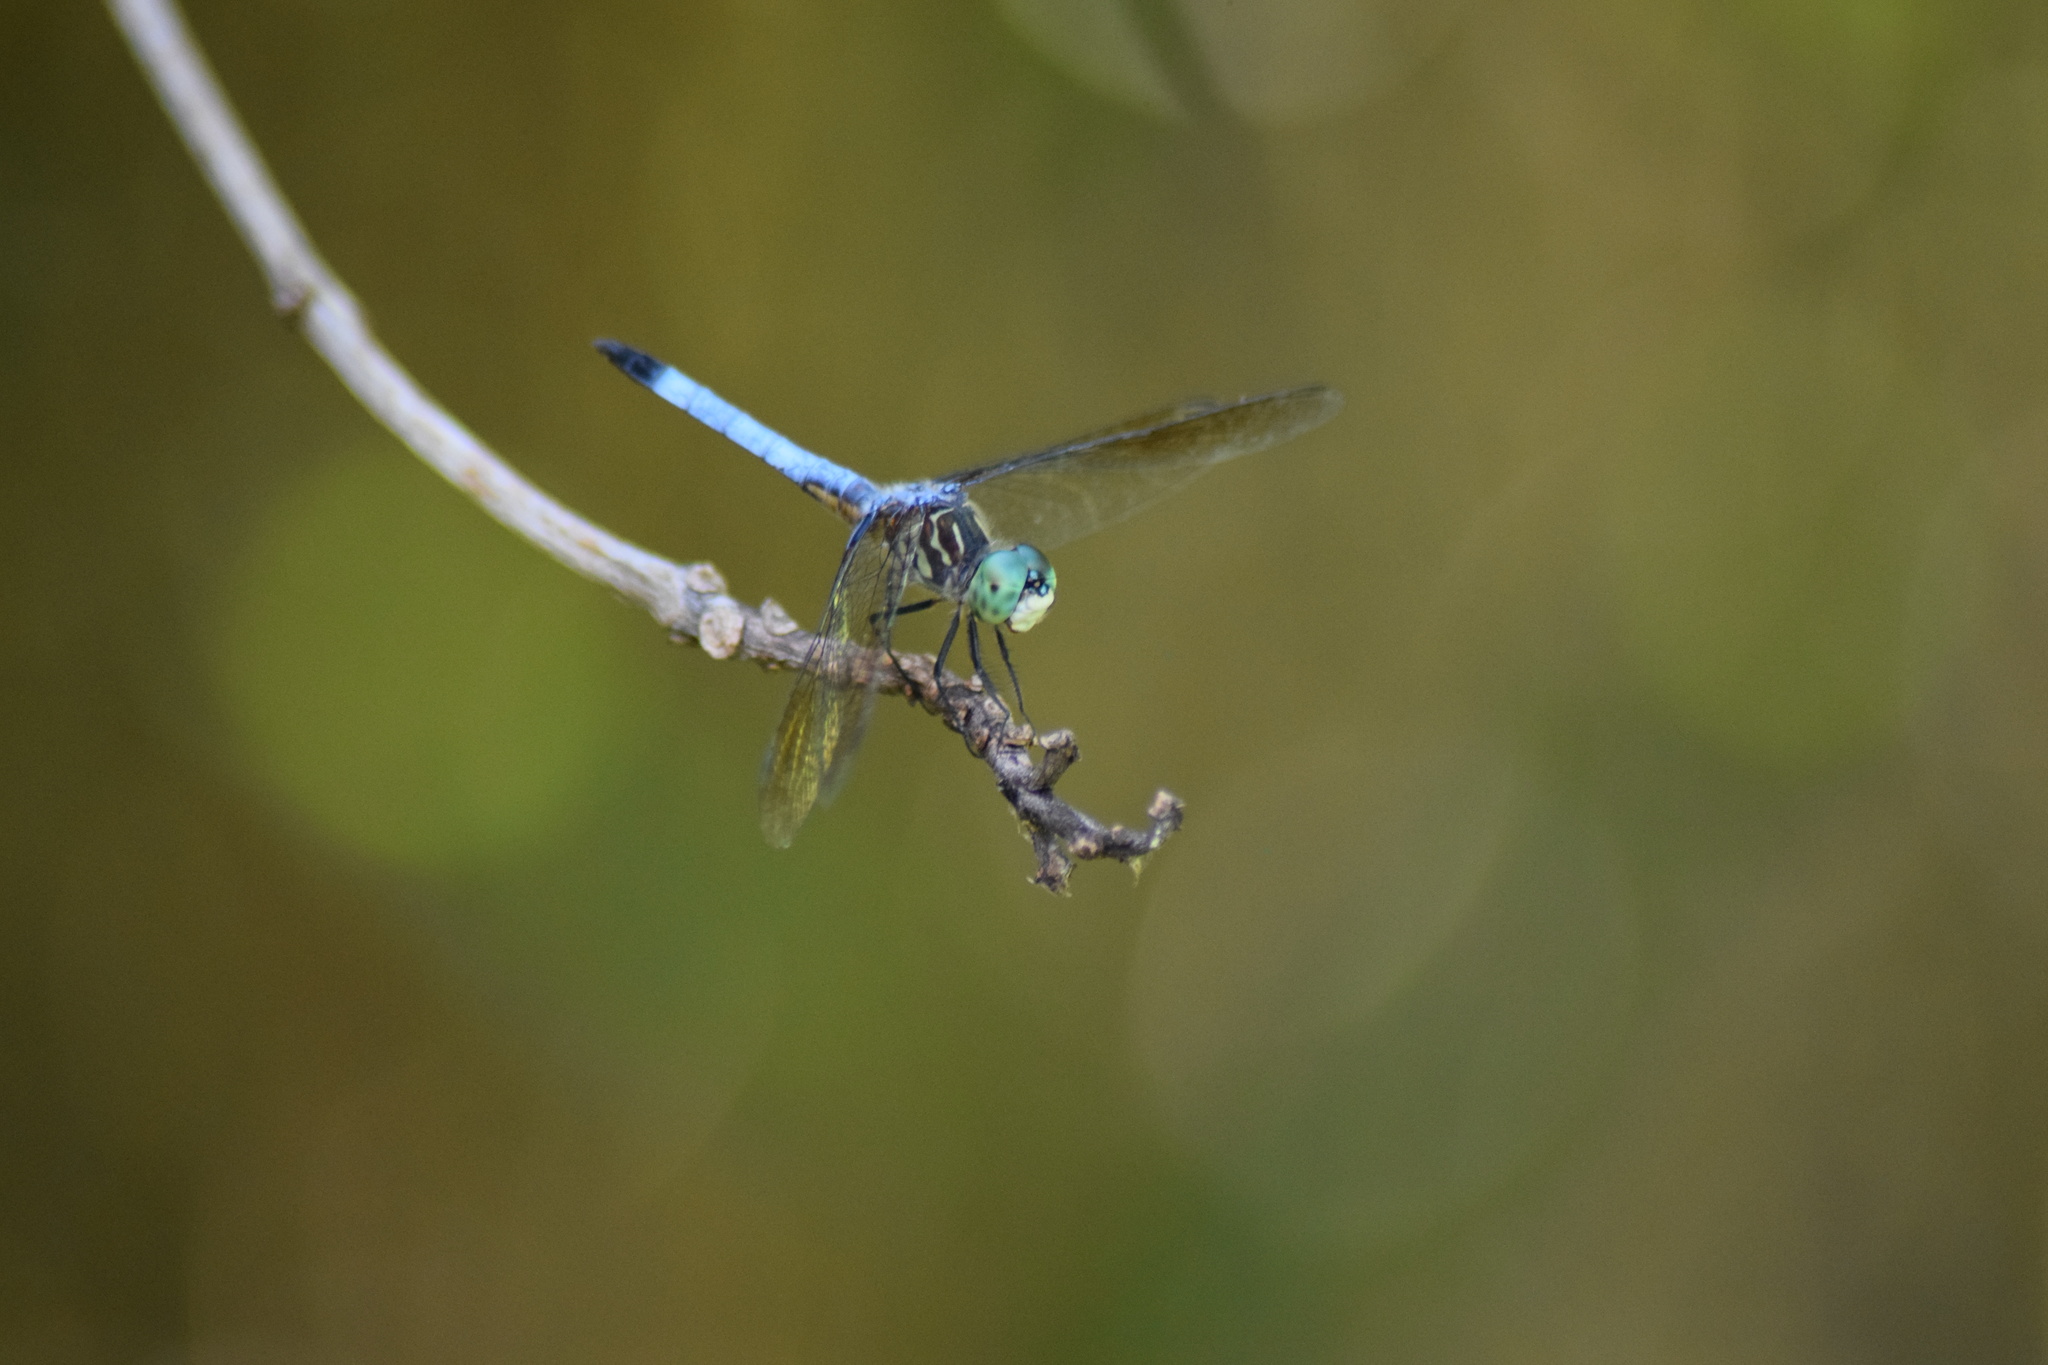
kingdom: Animalia
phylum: Arthropoda
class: Insecta
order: Odonata
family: Libellulidae
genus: Pachydiplax
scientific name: Pachydiplax longipennis
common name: Blue dasher
